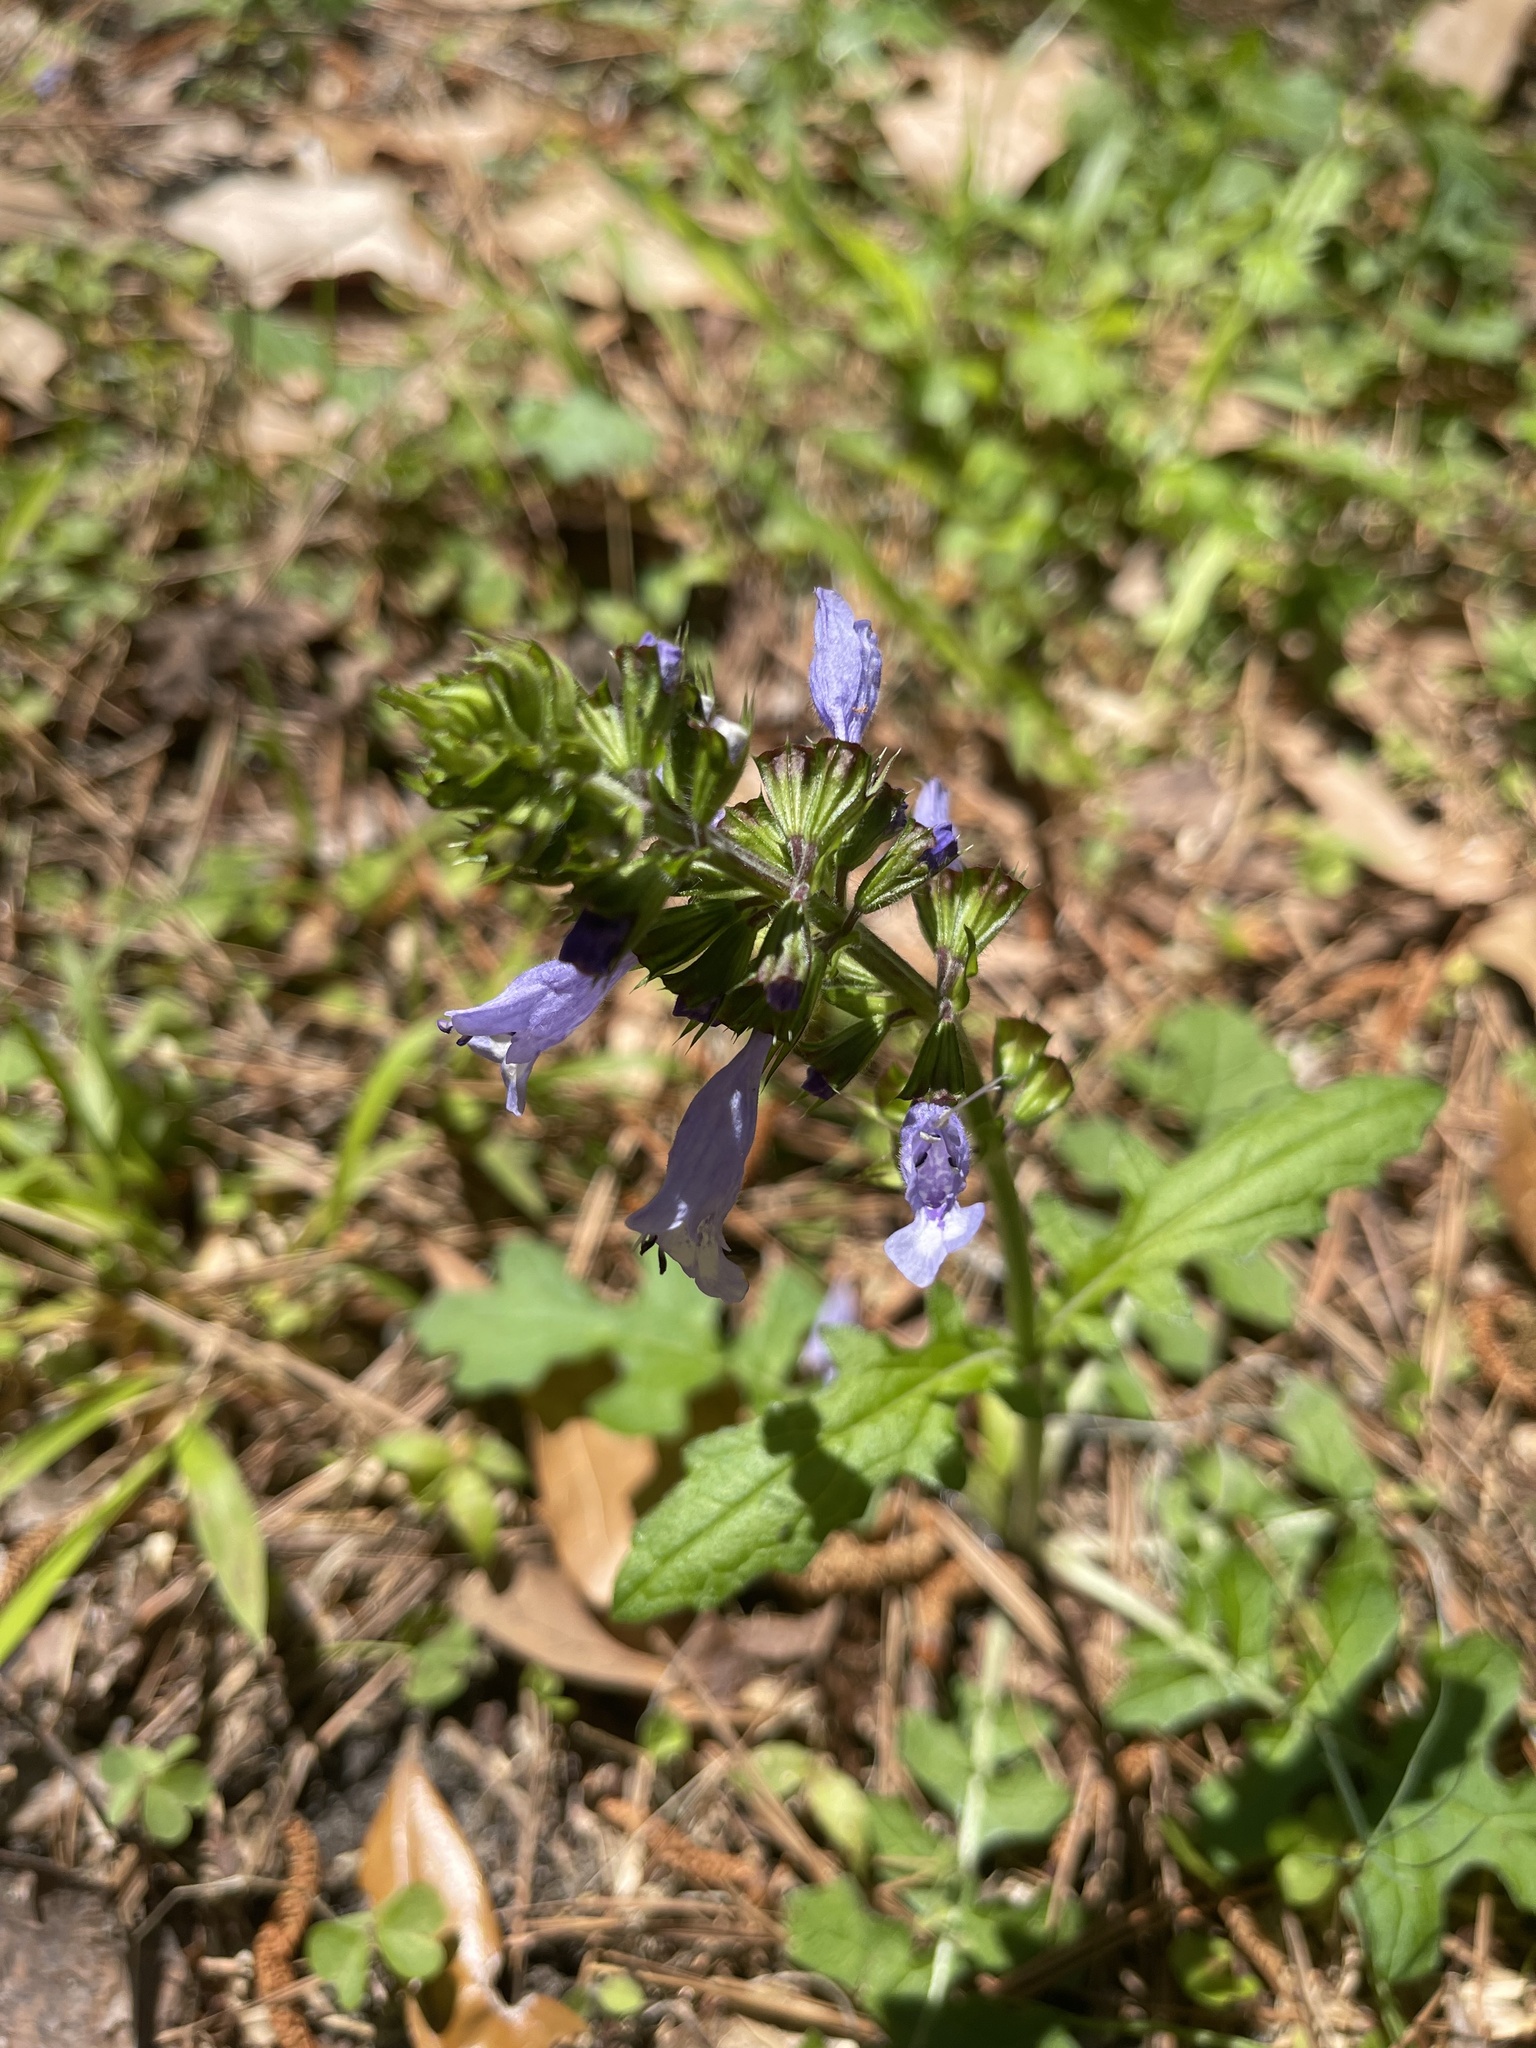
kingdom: Plantae
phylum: Tracheophyta
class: Magnoliopsida
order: Lamiales
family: Lamiaceae
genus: Salvia
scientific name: Salvia lyrata
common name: Cancerweed
